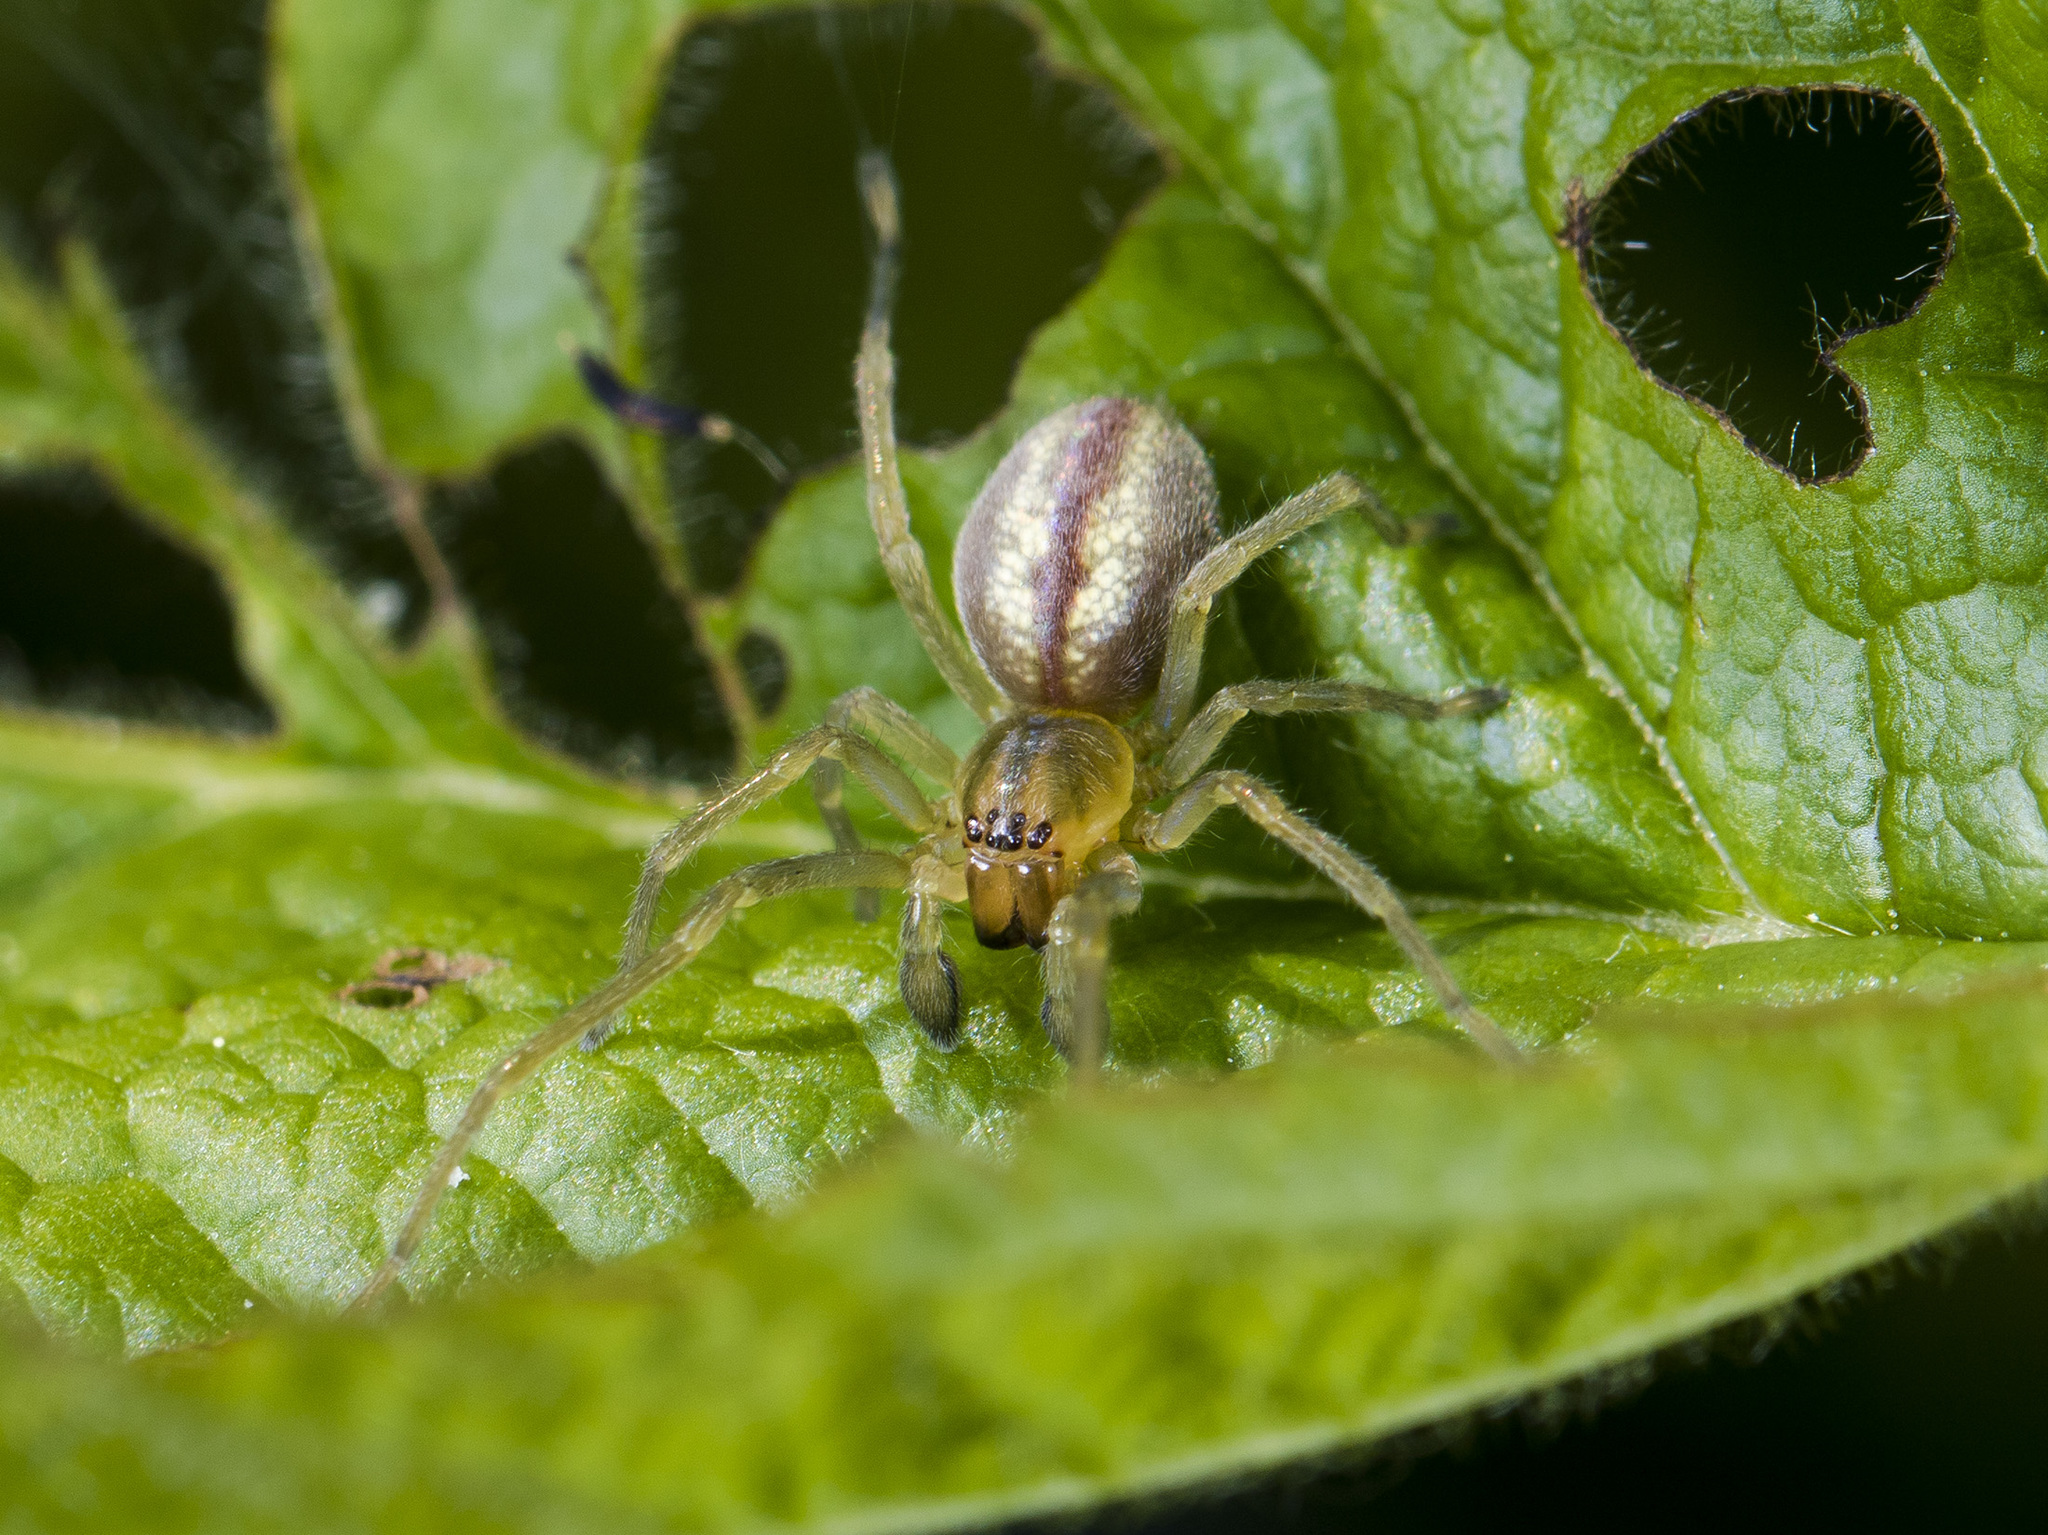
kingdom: Animalia
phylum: Arthropoda
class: Arachnida
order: Araneae
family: Cheiracanthiidae
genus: Cheiracanthium
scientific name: Cheiracanthium erraticum
